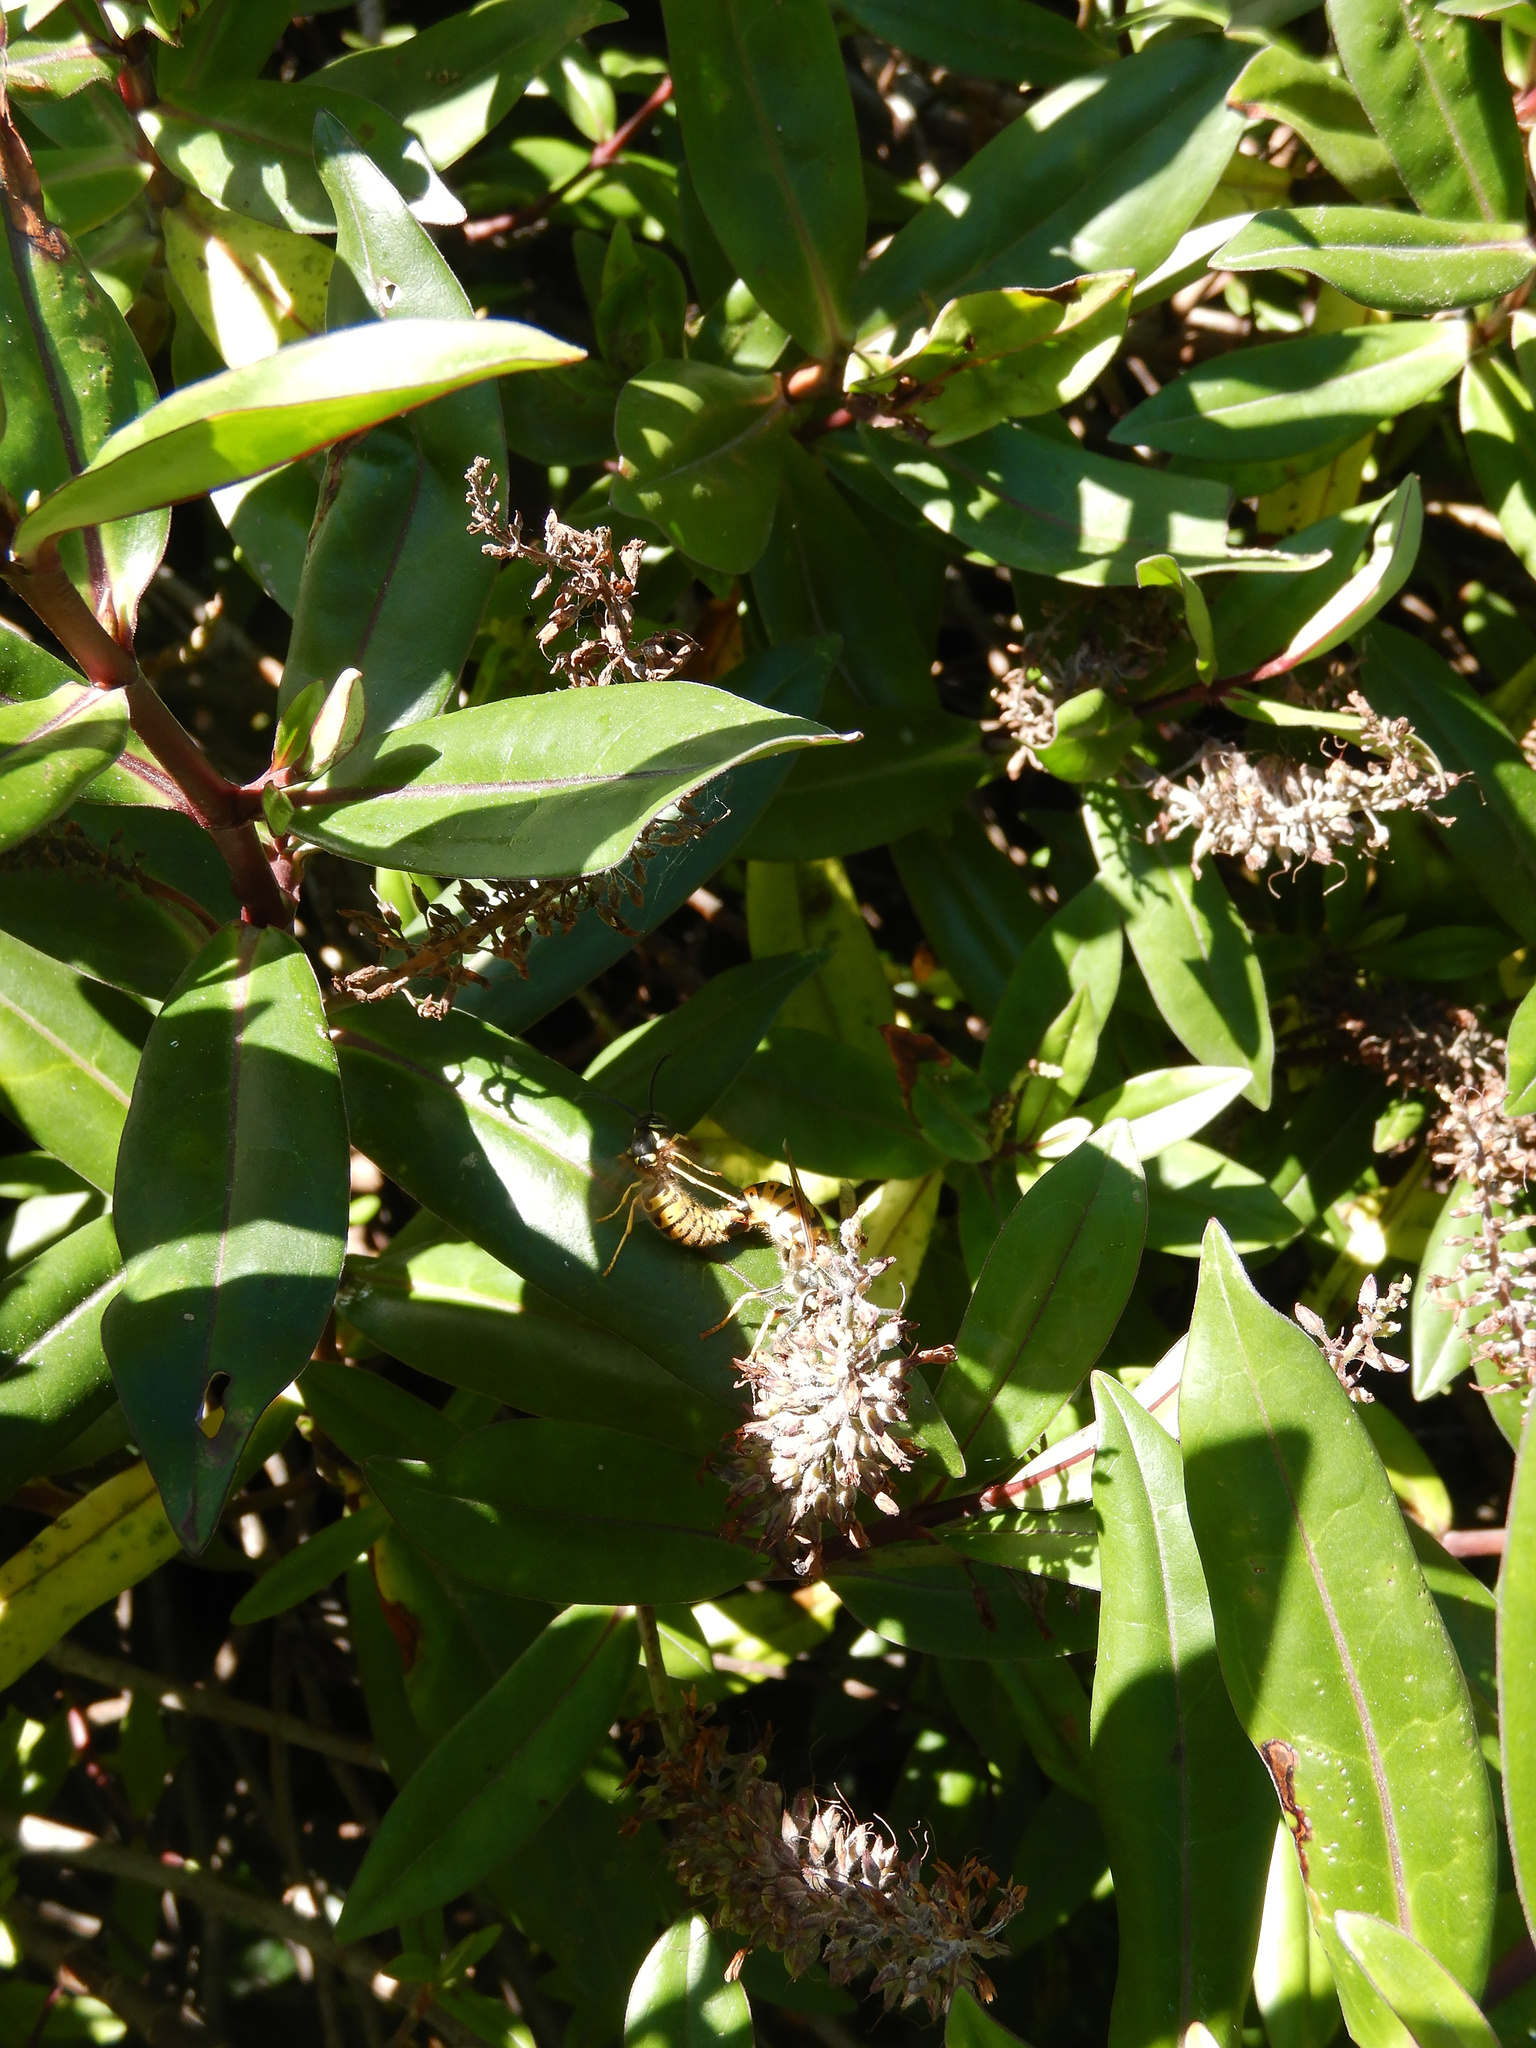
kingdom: Animalia
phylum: Arthropoda
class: Insecta
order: Hymenoptera
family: Vespidae
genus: Vespula
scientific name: Vespula germanica
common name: German wasp
